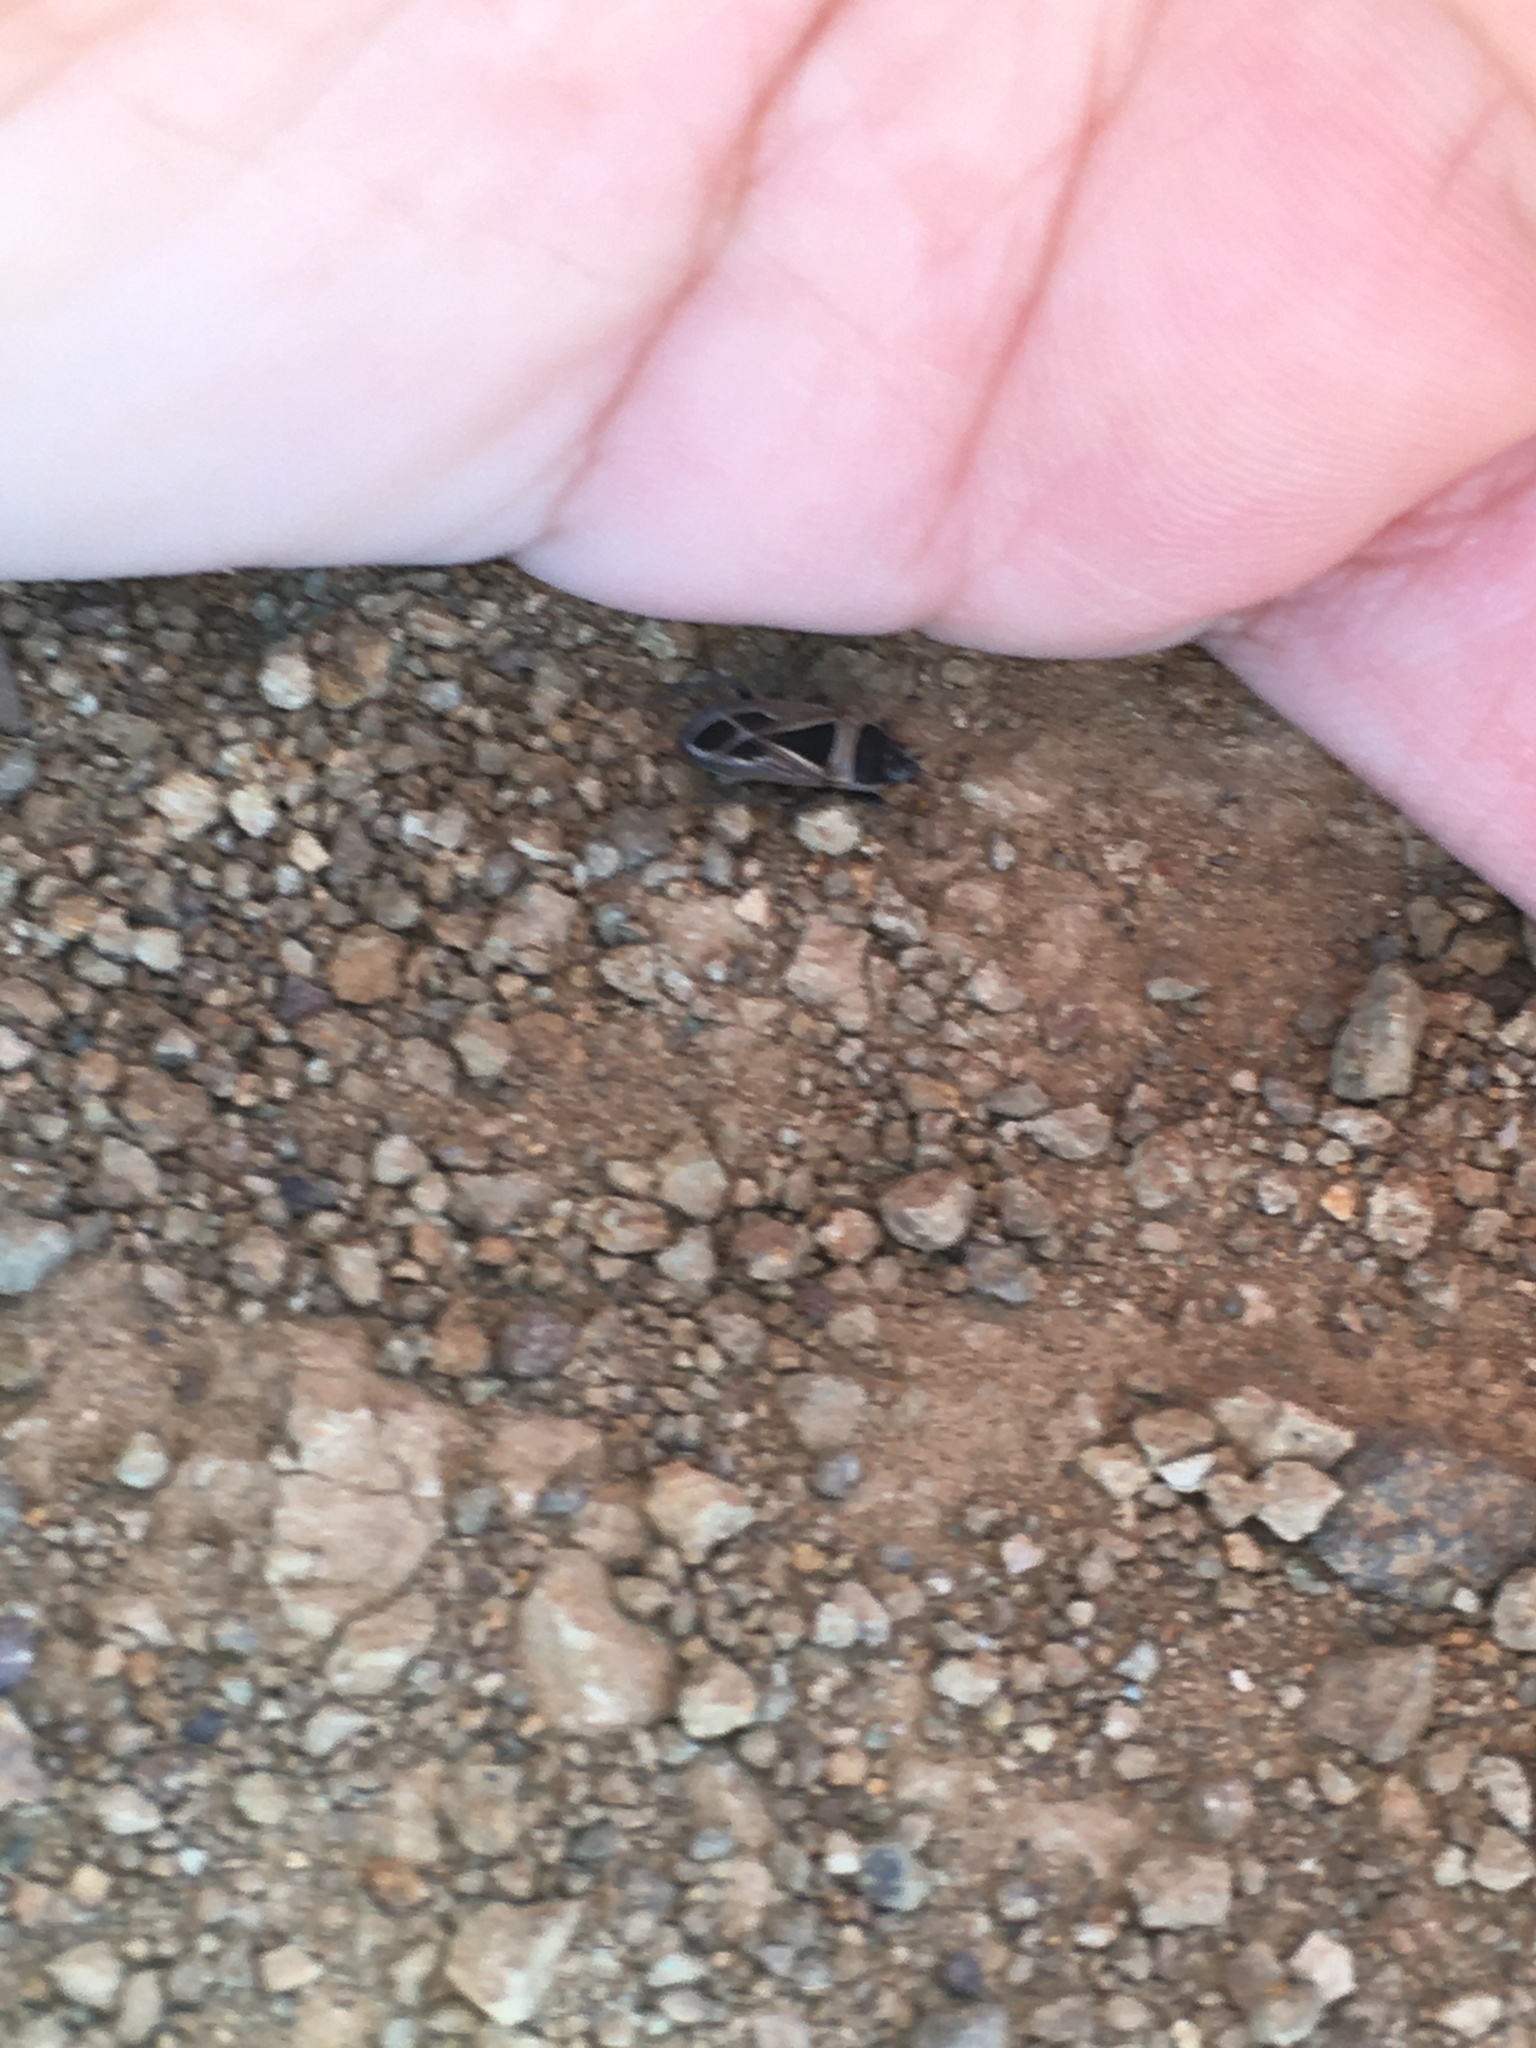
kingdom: Animalia
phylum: Arthropoda
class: Insecta
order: Hemiptera
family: Rhyparochromidae
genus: Xanthochilus
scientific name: Xanthochilus saturnius
